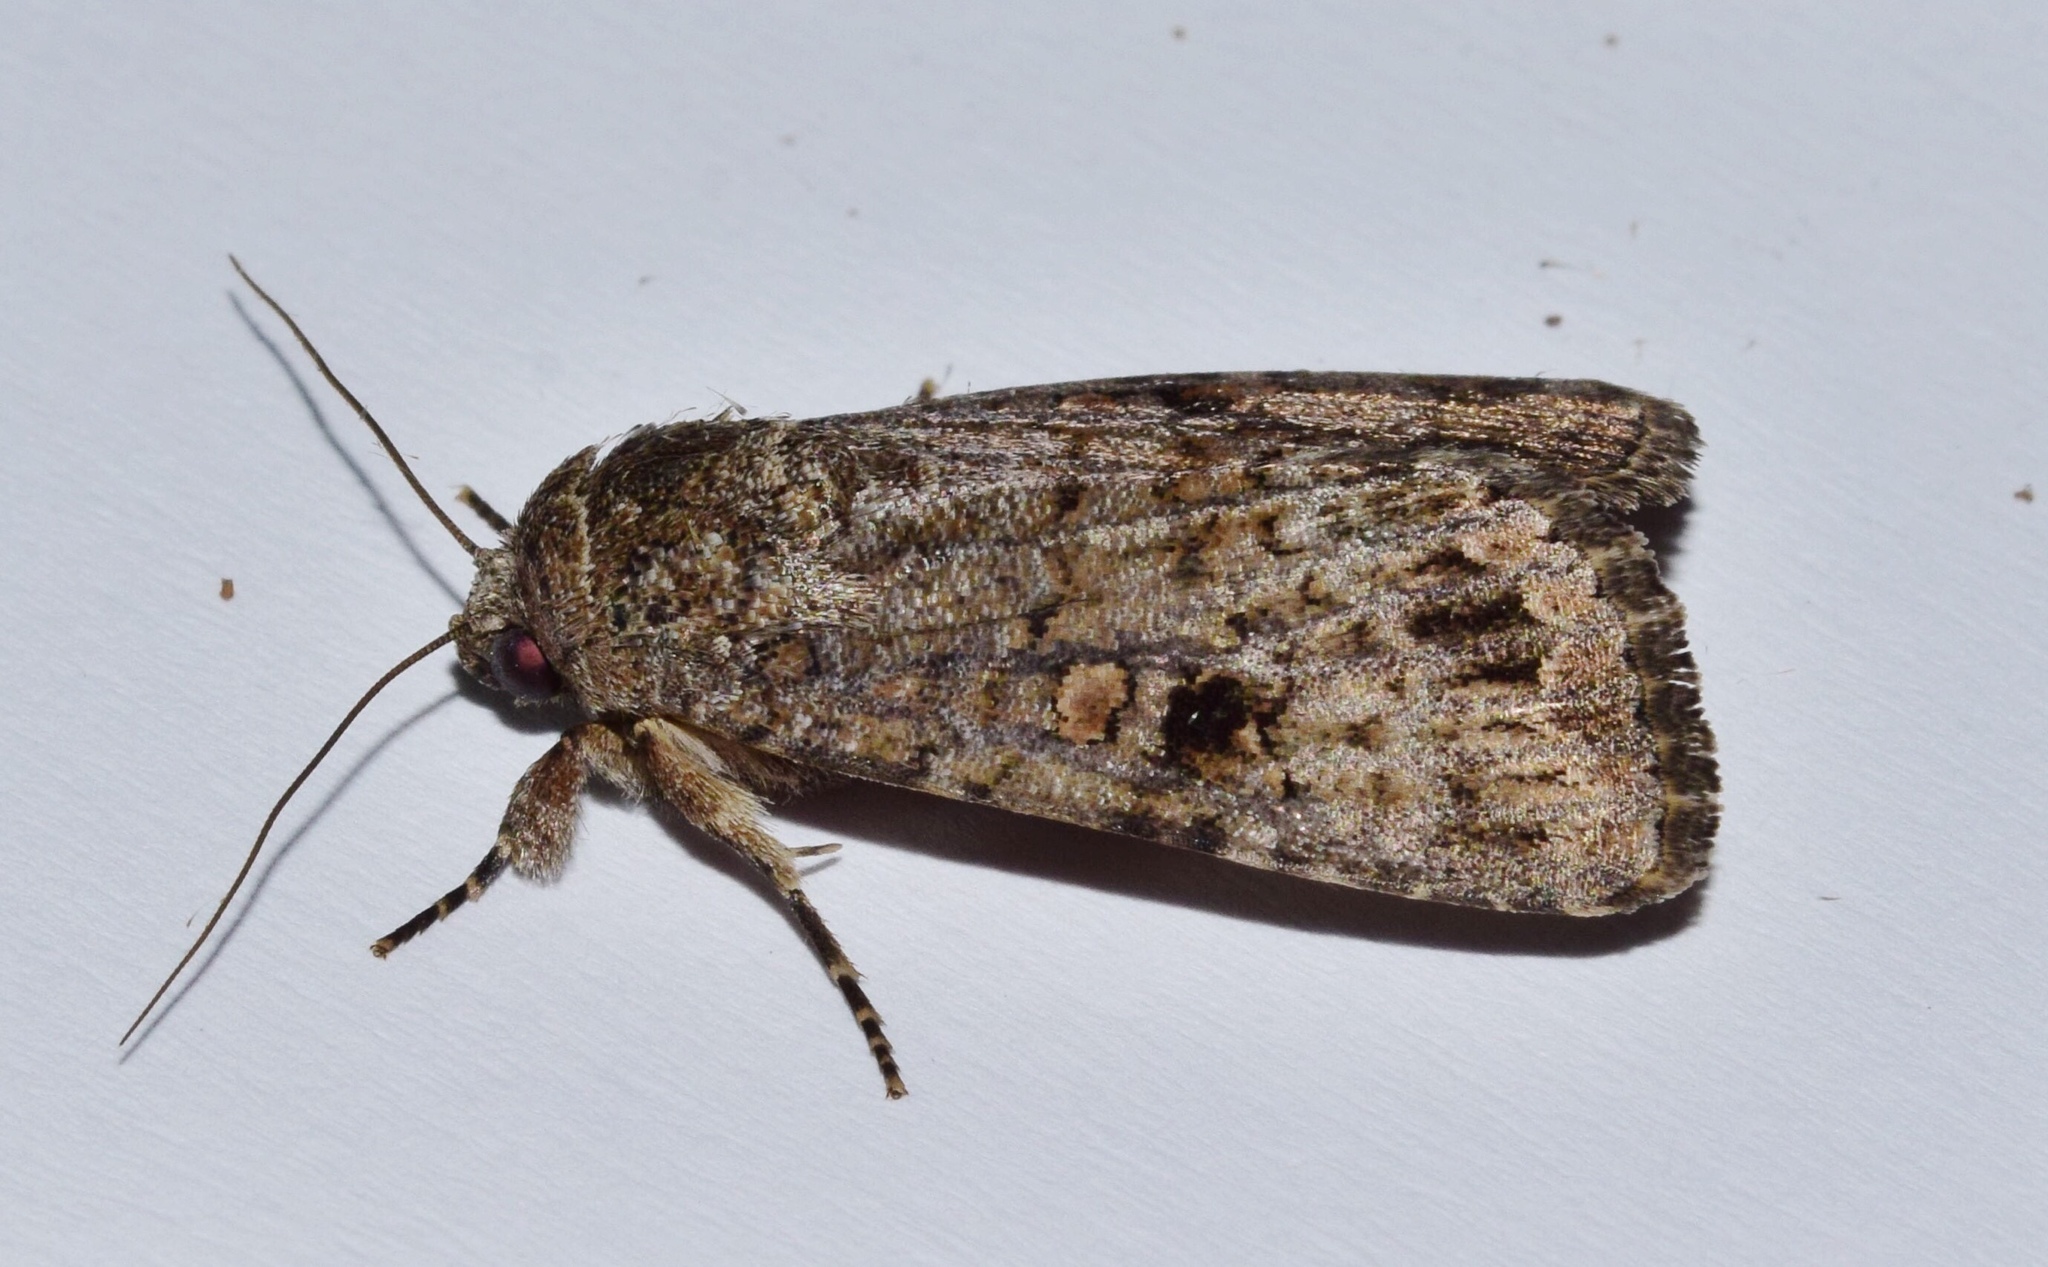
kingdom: Animalia
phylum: Arthropoda
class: Insecta
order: Lepidoptera
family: Noctuidae
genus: Spodoptera
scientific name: Spodoptera triturata
